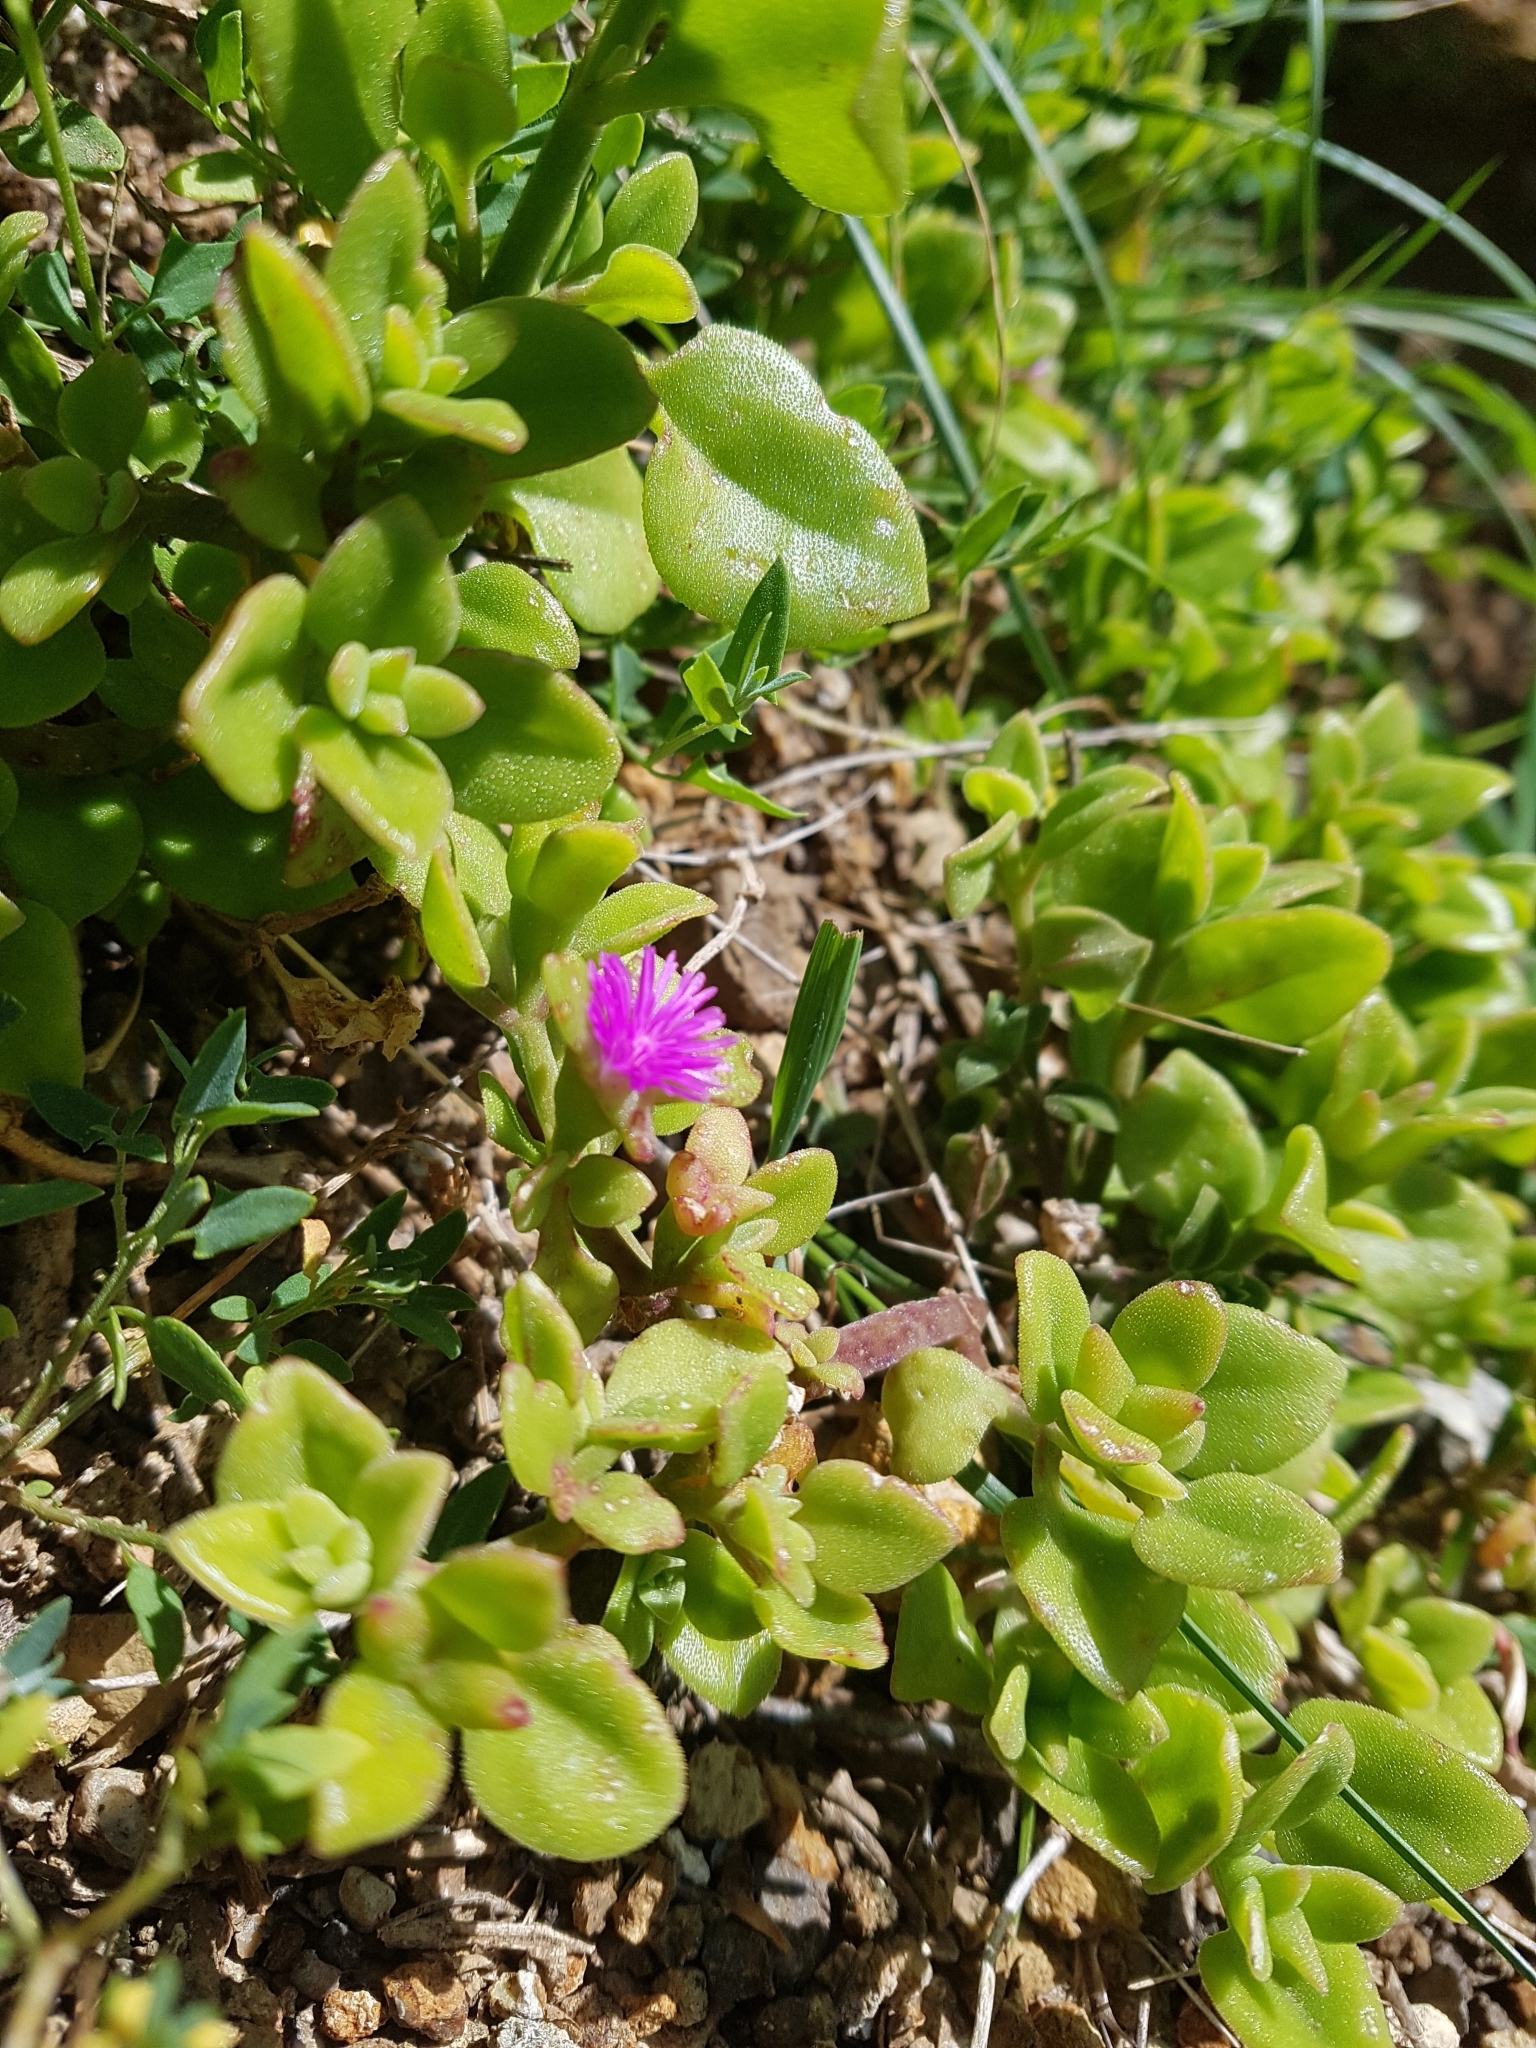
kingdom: Plantae
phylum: Tracheophyta
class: Magnoliopsida
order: Caryophyllales
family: Aizoaceae
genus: Mesembryanthemum
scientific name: Mesembryanthemum cordifolium
